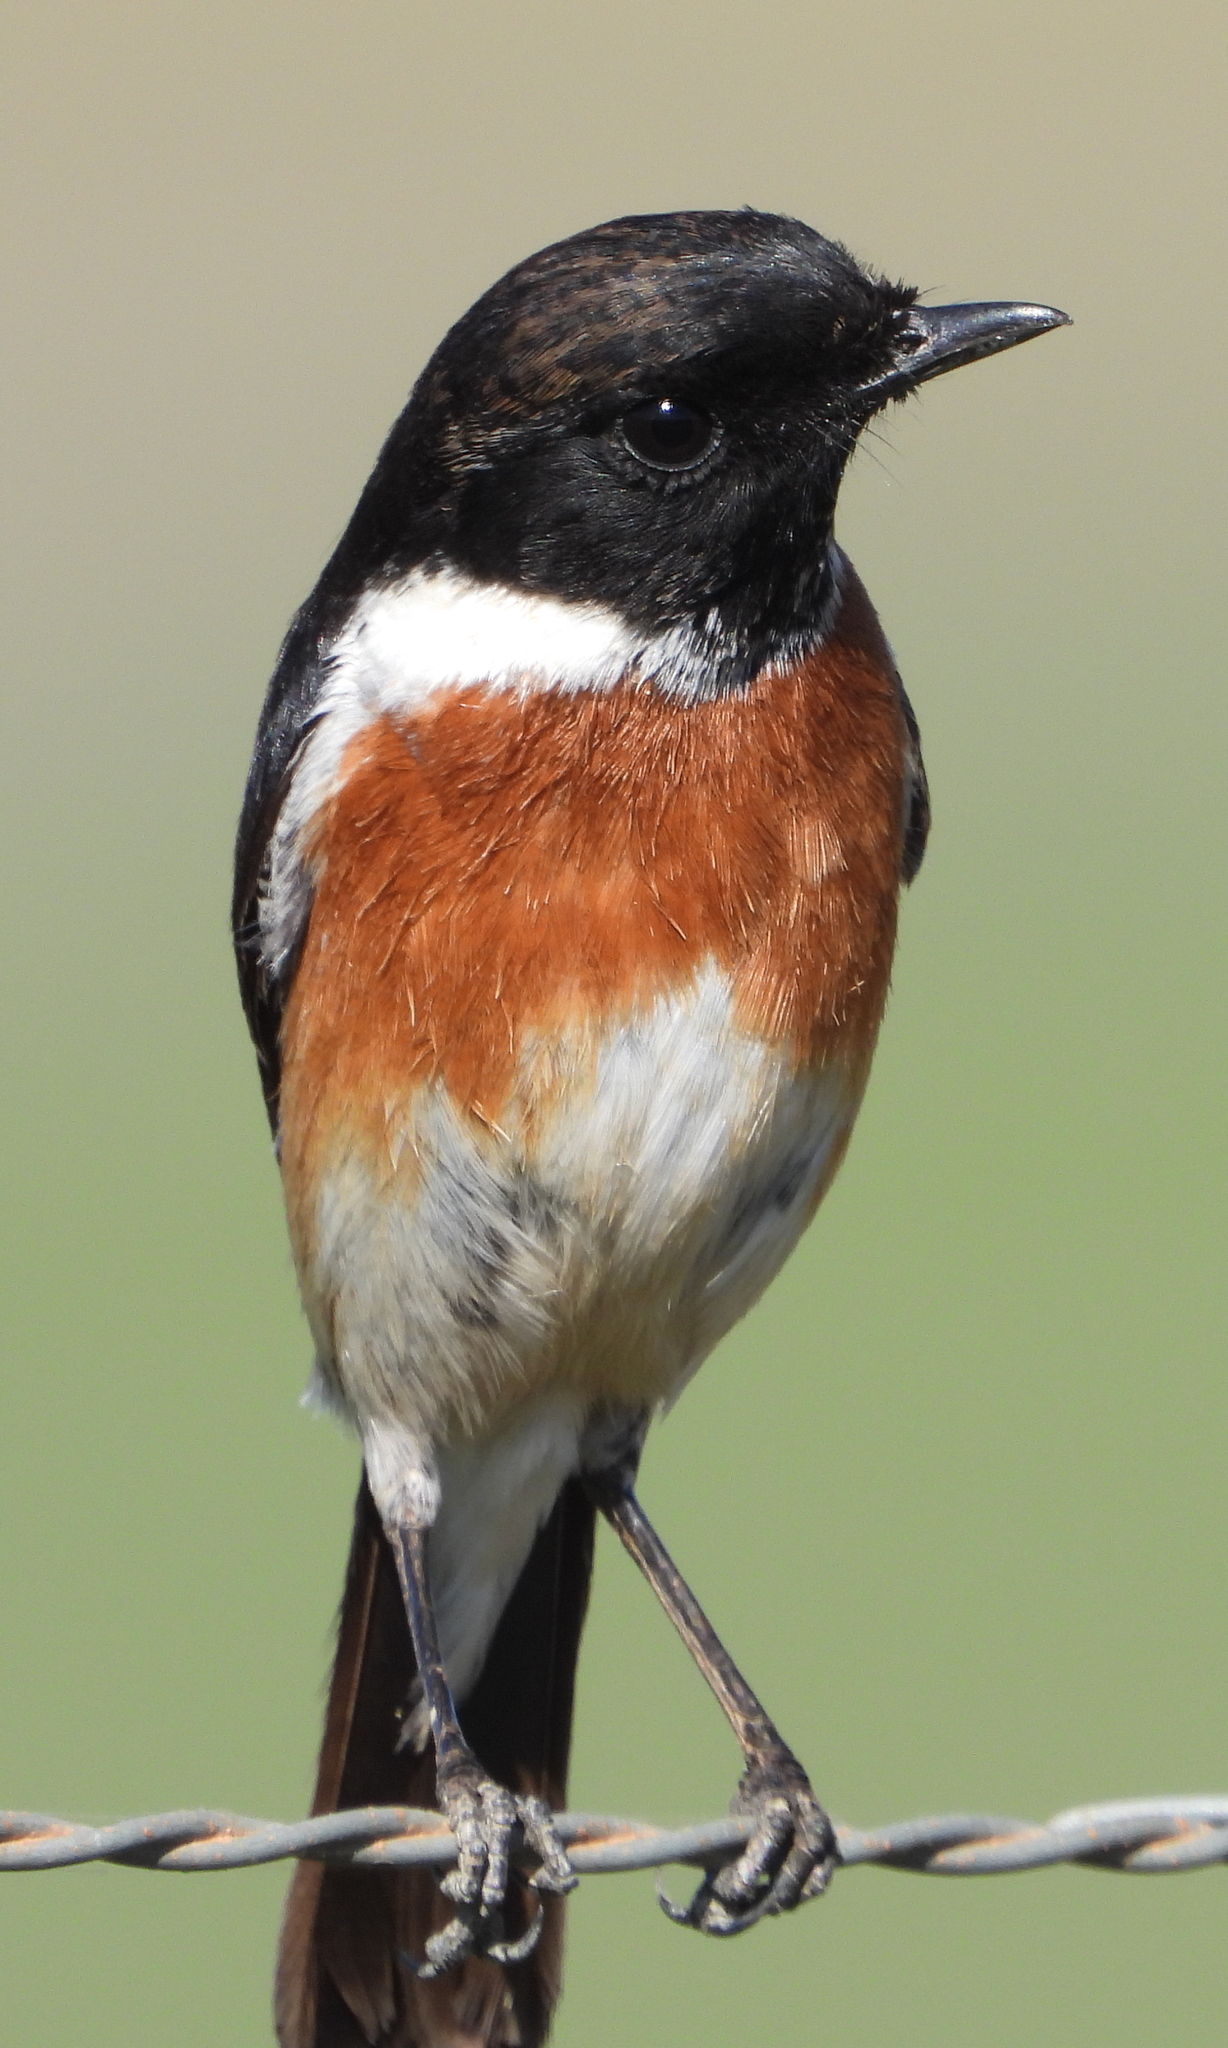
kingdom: Animalia
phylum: Chordata
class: Aves
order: Passeriformes
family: Muscicapidae
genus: Saxicola
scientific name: Saxicola torquatus
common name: African stonechat
